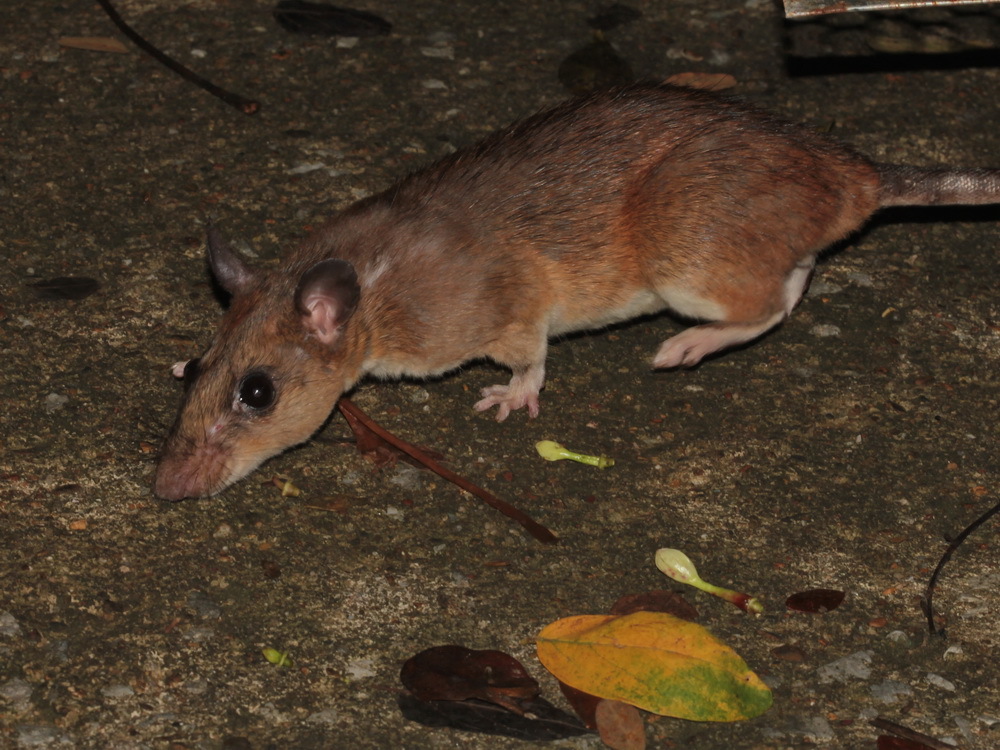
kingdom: Animalia
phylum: Chordata
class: Mammalia
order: Rodentia
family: Muridae
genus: Leopoldamys
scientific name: Leopoldamys sabanus
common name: Indomalayan leopoldamys
